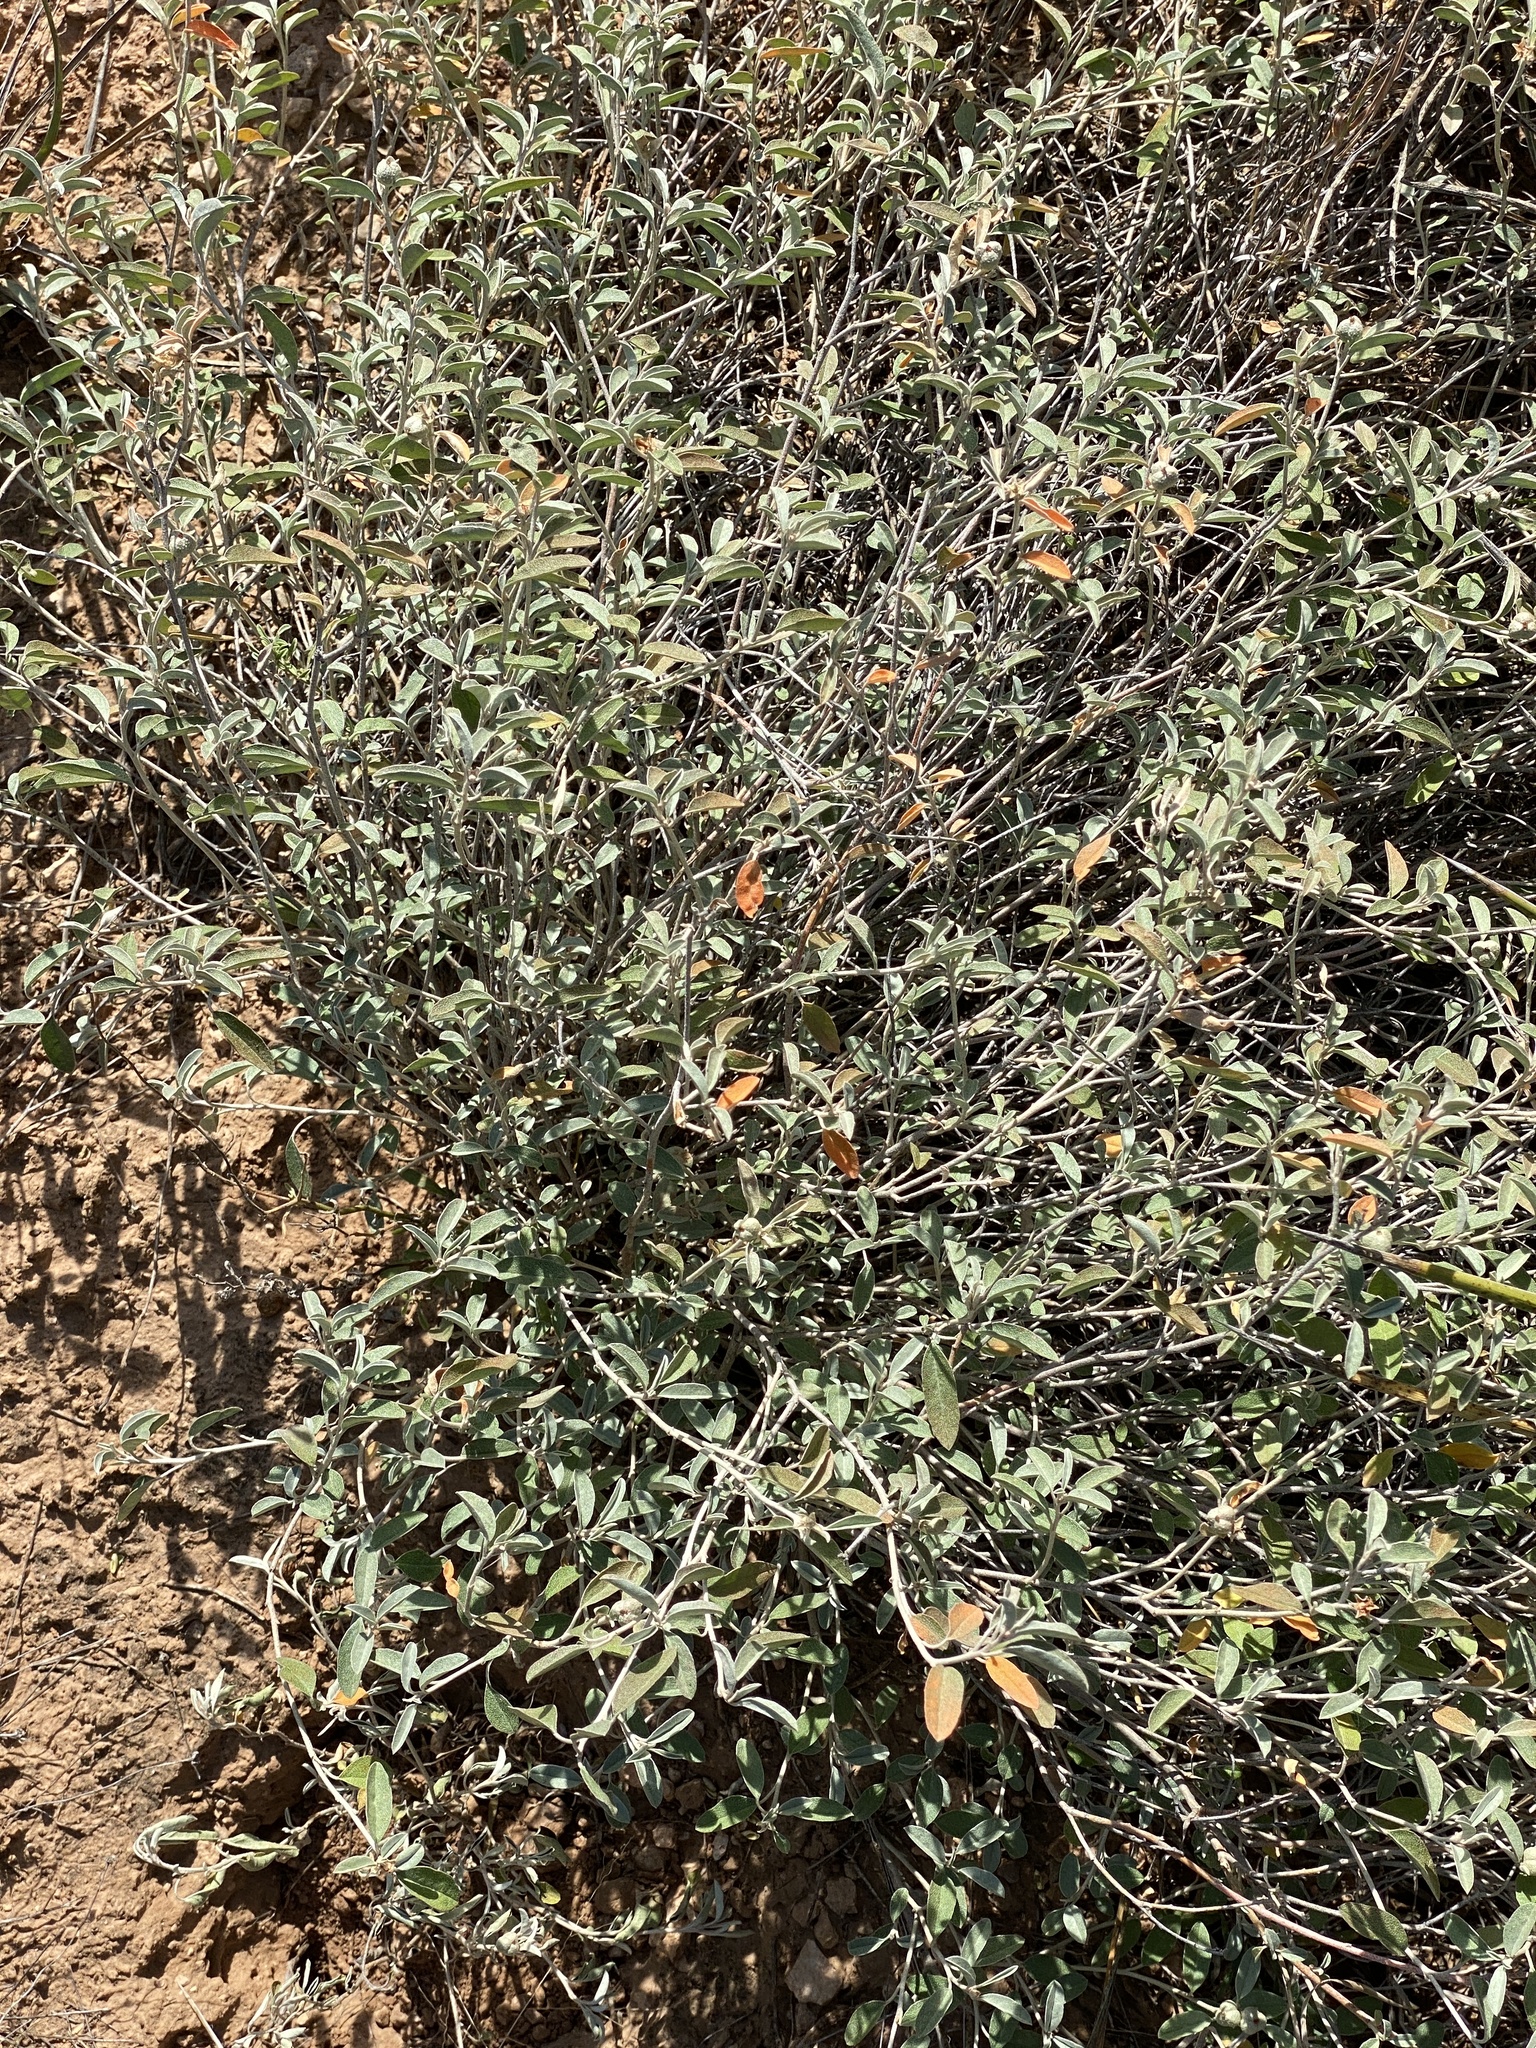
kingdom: Plantae
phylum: Tracheophyta
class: Magnoliopsida
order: Malpighiales
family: Euphorbiaceae
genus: Croton
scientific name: Croton dioicus
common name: Grassland croton
